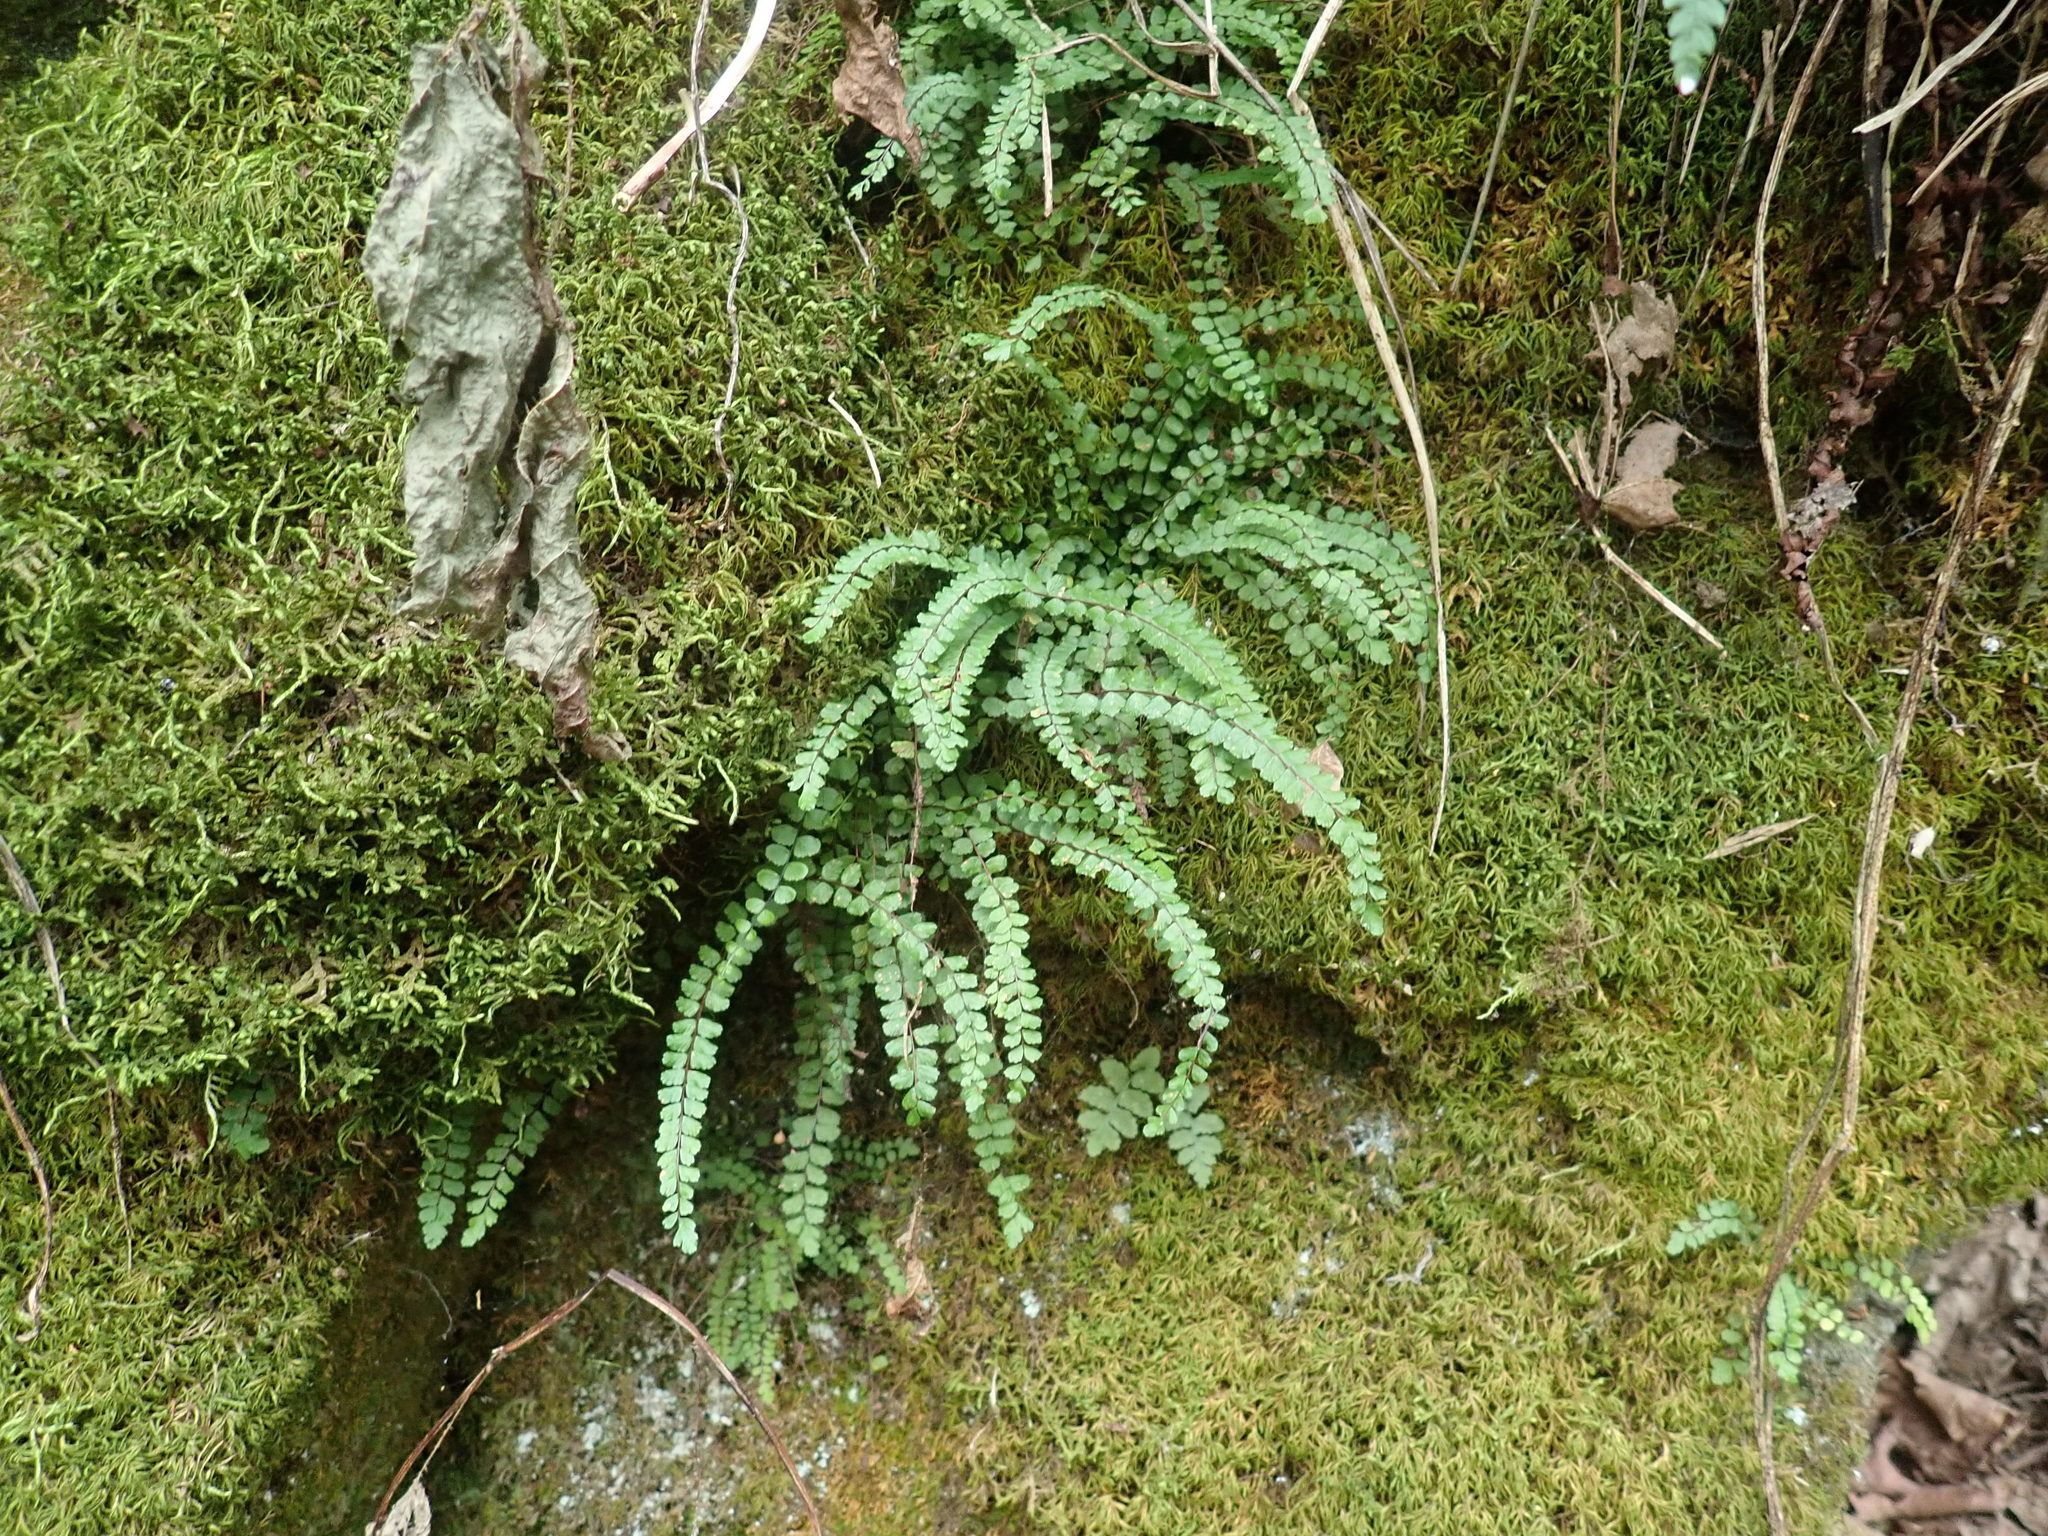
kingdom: Plantae
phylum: Tracheophyta
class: Polypodiopsida
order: Polypodiales
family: Aspleniaceae
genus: Asplenium
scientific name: Asplenium trichomanes
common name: Maidenhair spleenwort
